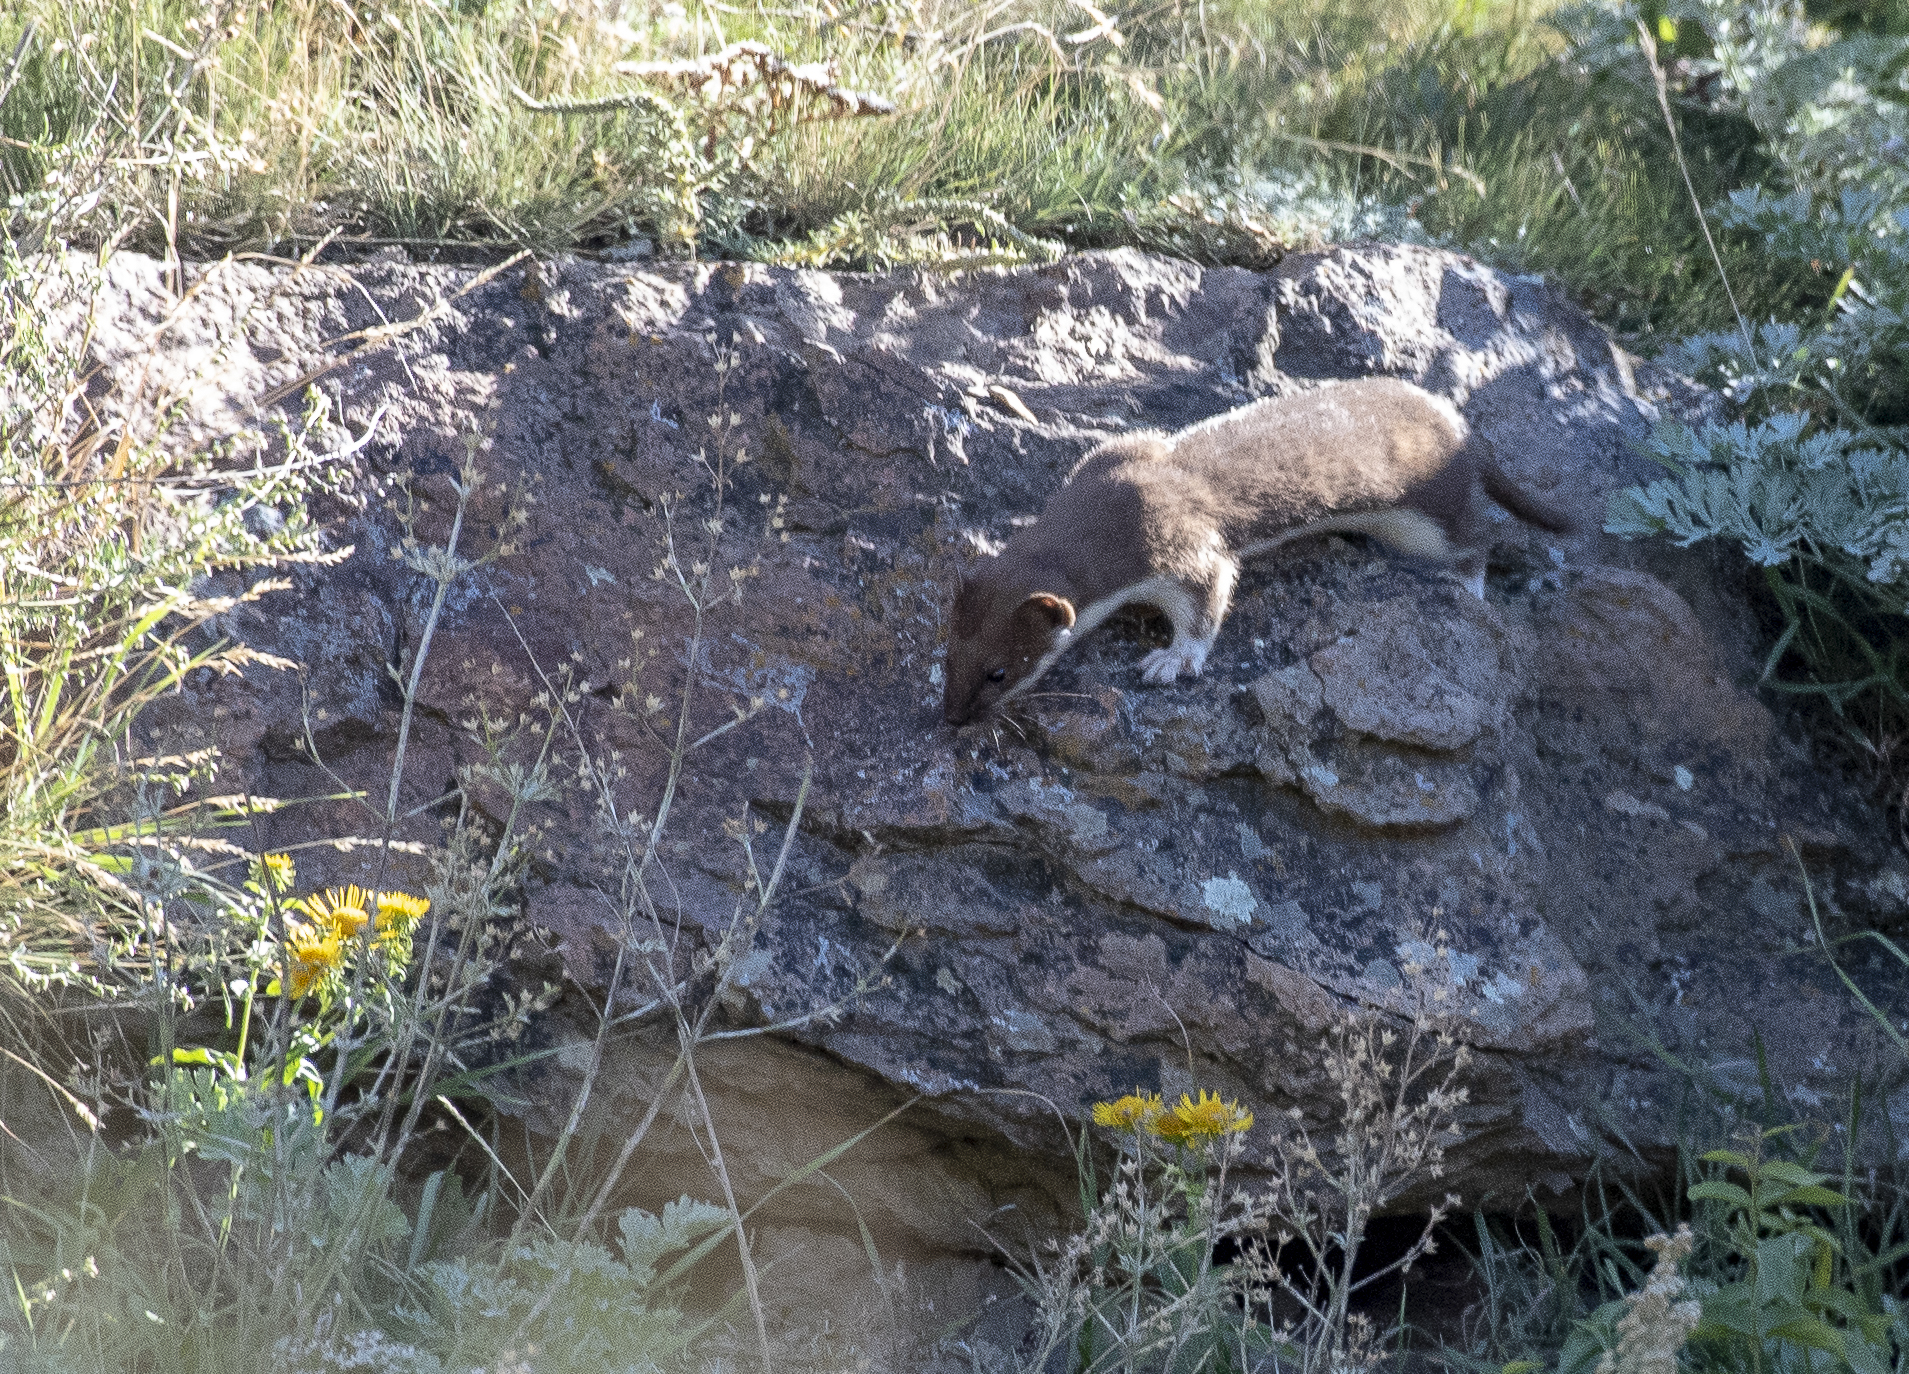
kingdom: Animalia
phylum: Chordata
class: Mammalia
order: Carnivora
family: Mustelidae
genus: Mustela
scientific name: Mustela nivalis
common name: Least weasel
